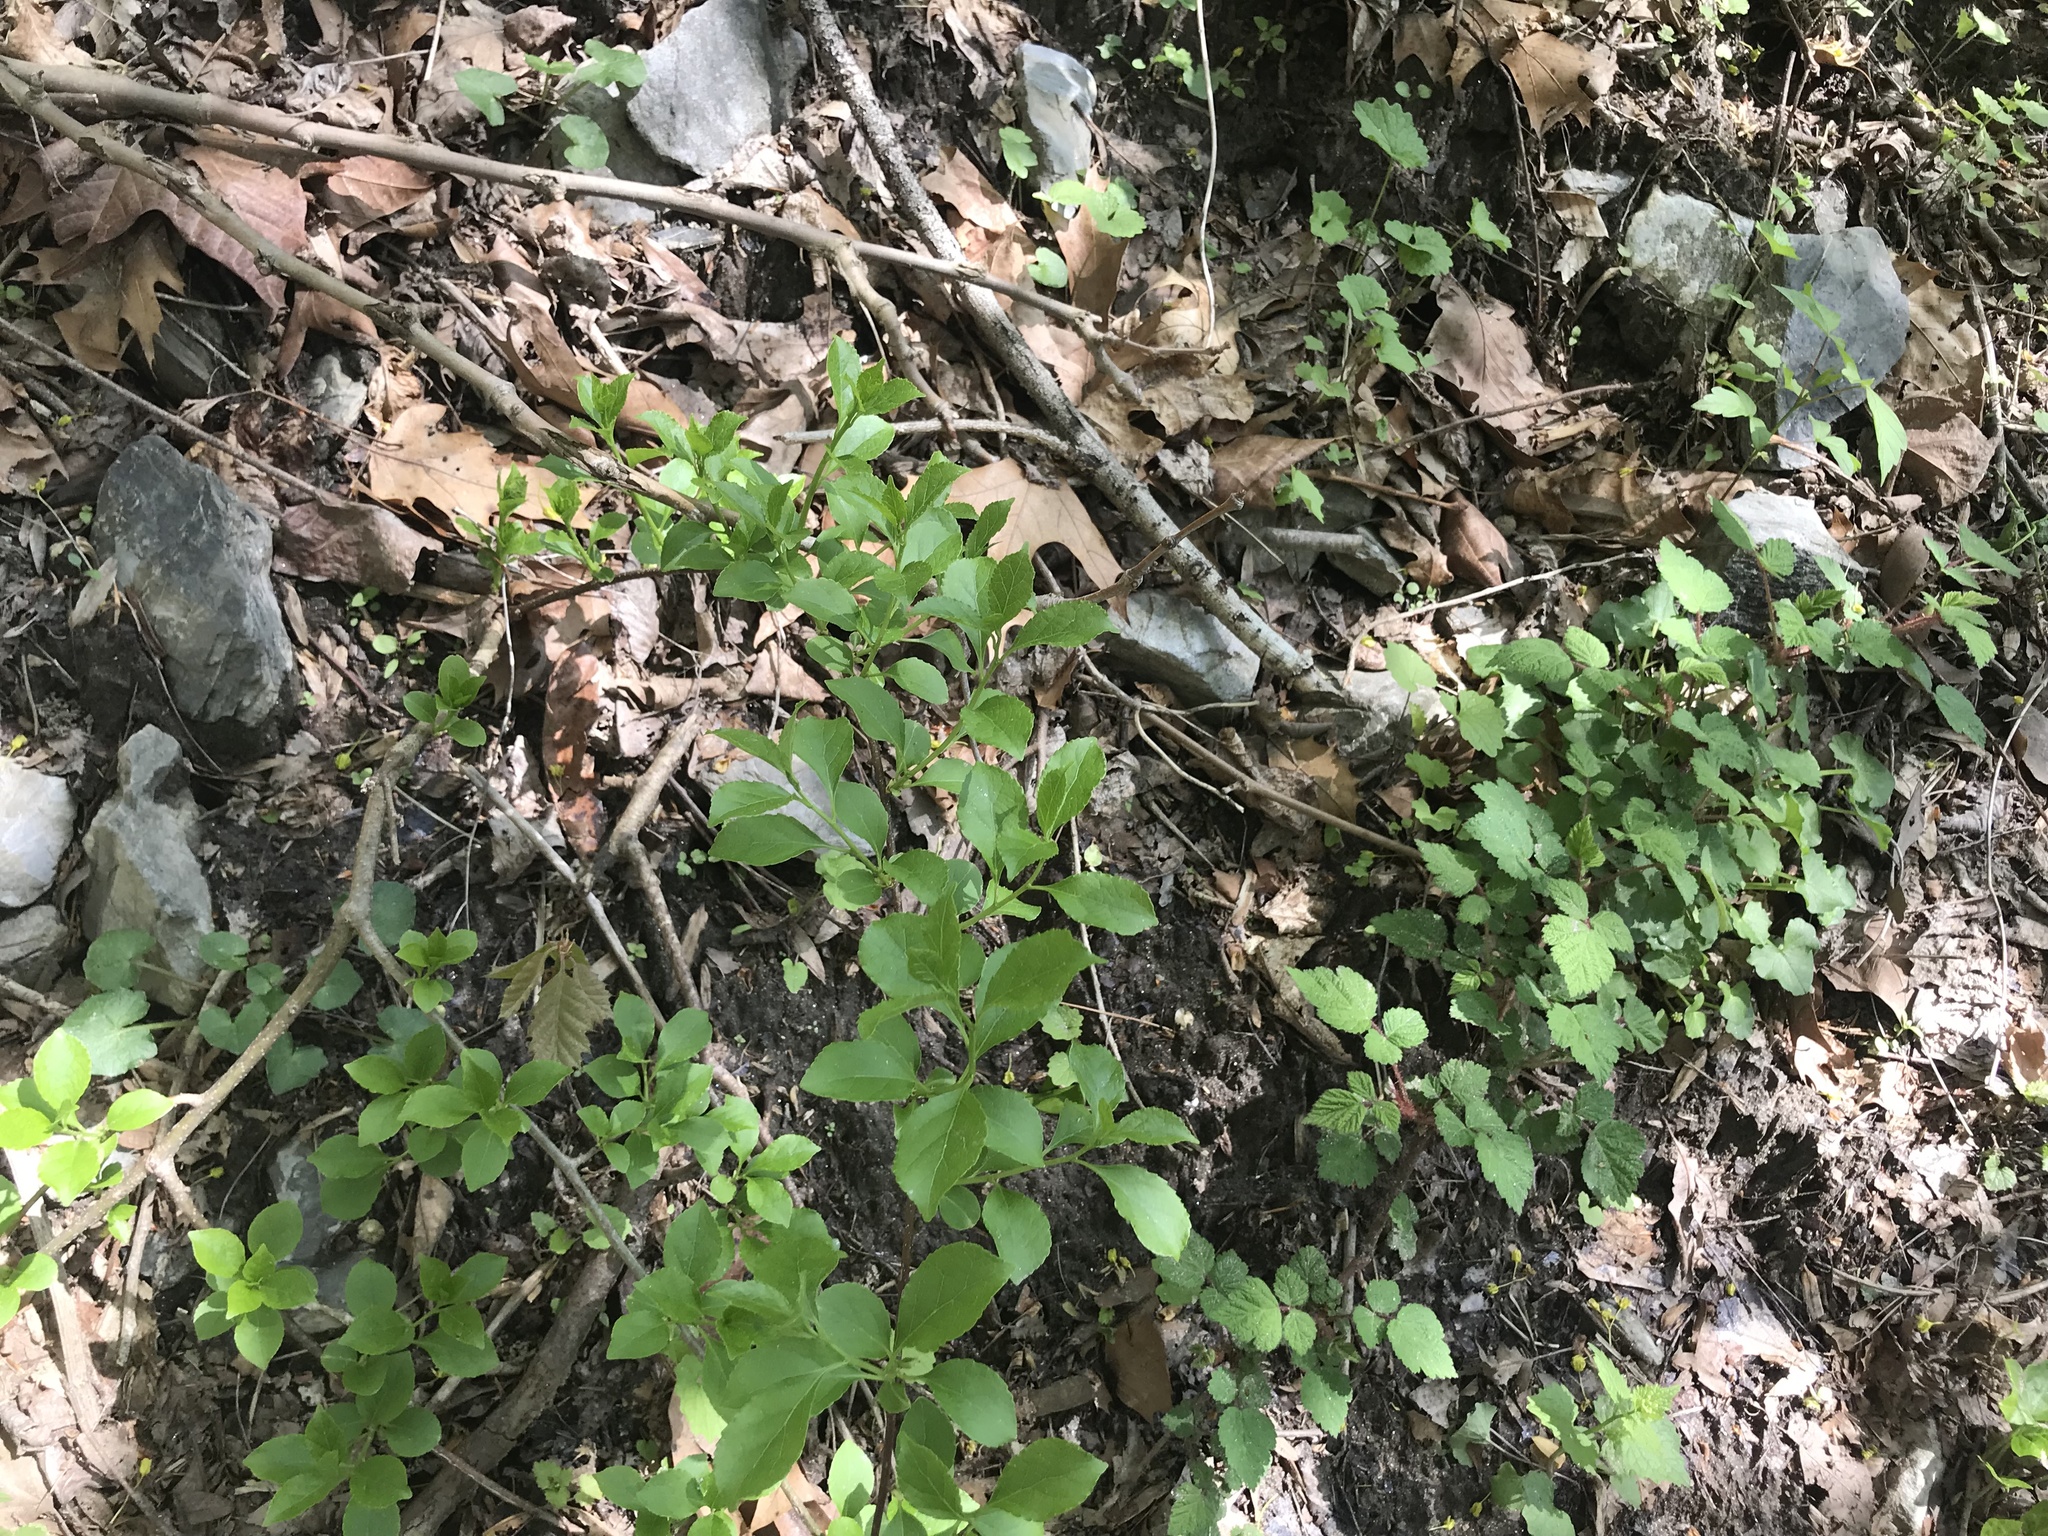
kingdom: Plantae
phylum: Tracheophyta
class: Magnoliopsida
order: Celastrales
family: Celastraceae
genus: Celastrus
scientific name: Celastrus orbiculatus
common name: Oriental bittersweet
